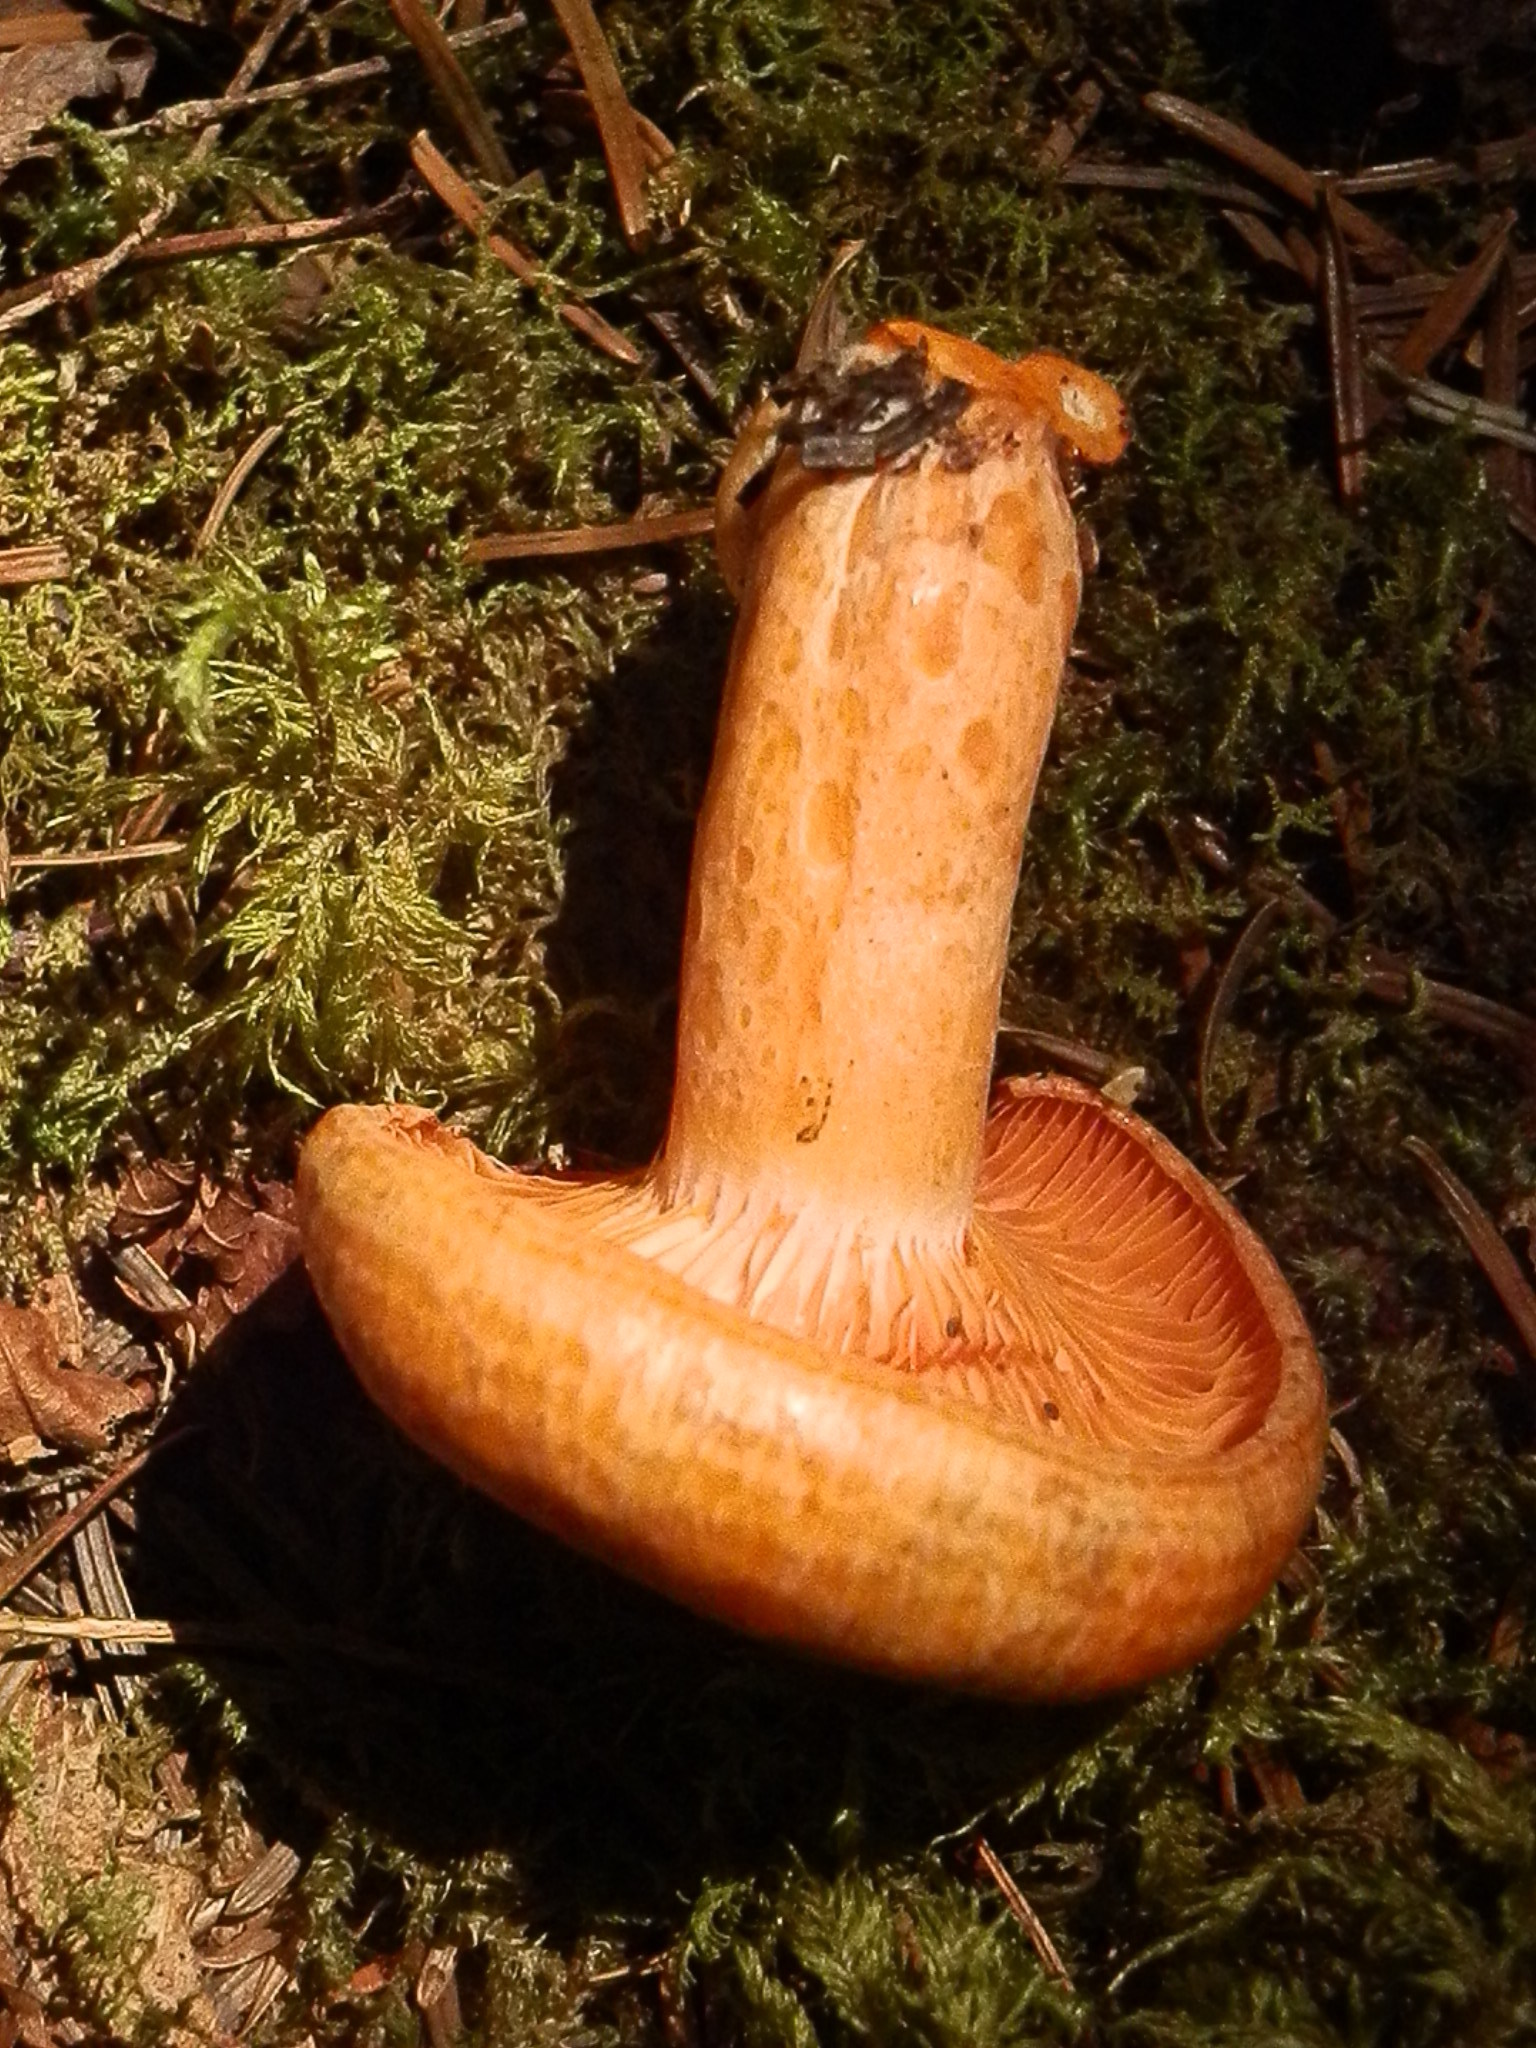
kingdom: Fungi
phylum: Basidiomycota
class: Agaricomycetes
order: Russulales
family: Russulaceae
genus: Lactarius
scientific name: Lactarius salmonicolor
